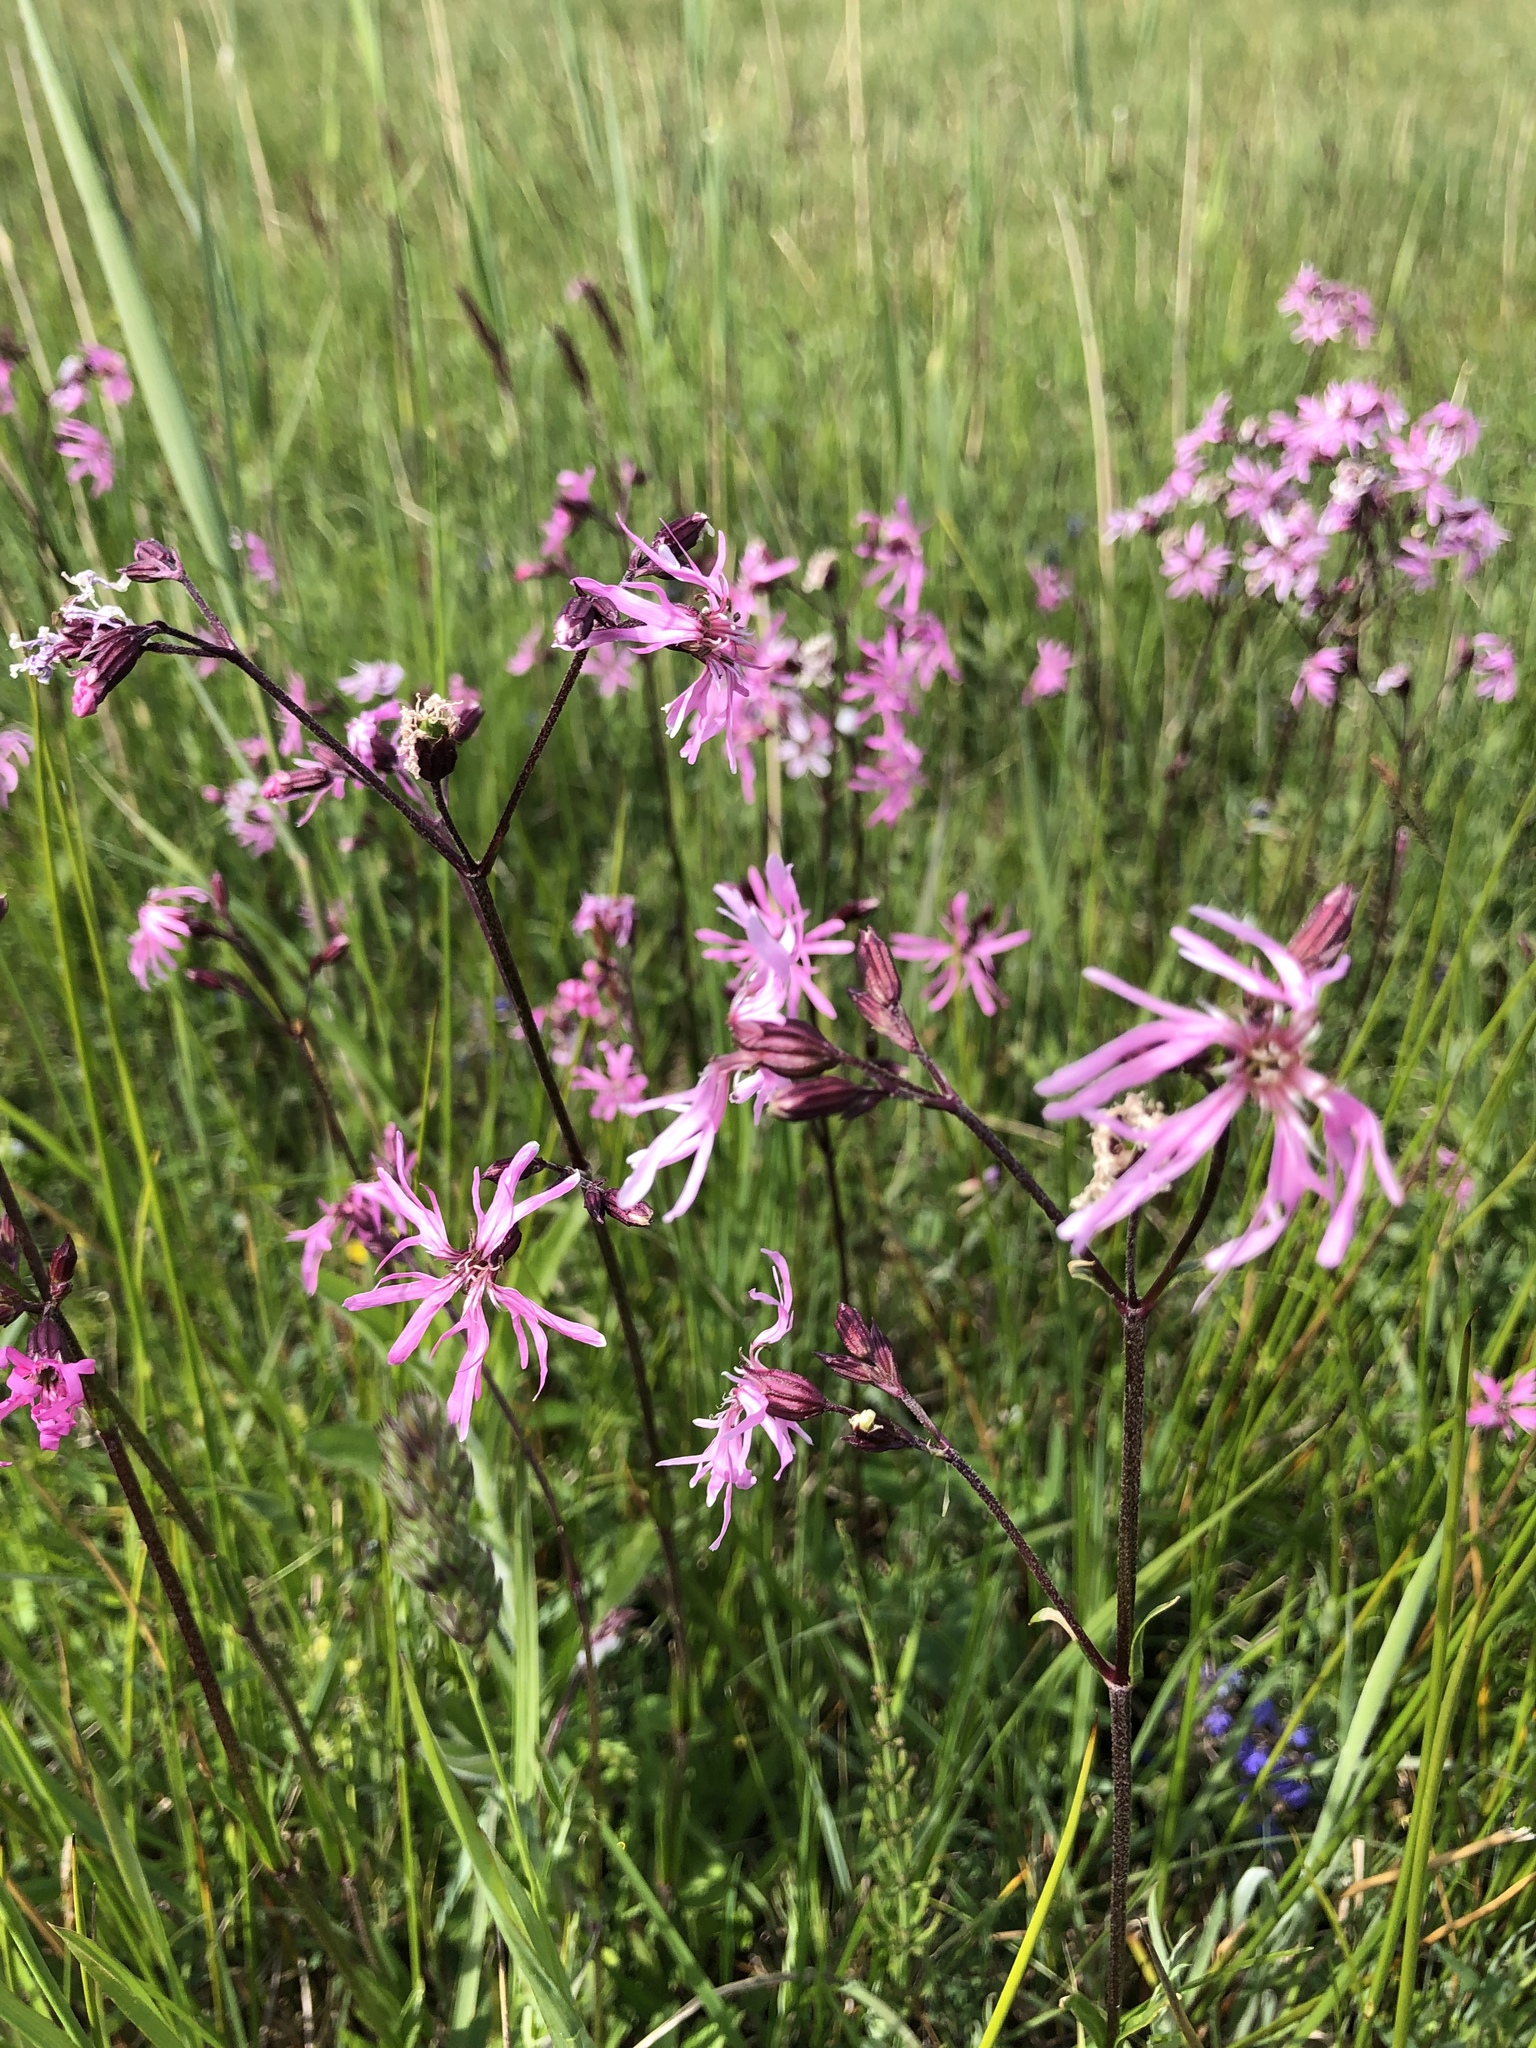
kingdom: Plantae
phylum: Tracheophyta
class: Magnoliopsida
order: Caryophyllales
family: Caryophyllaceae
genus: Silene
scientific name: Silene flos-cuculi
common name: Ragged-robin
